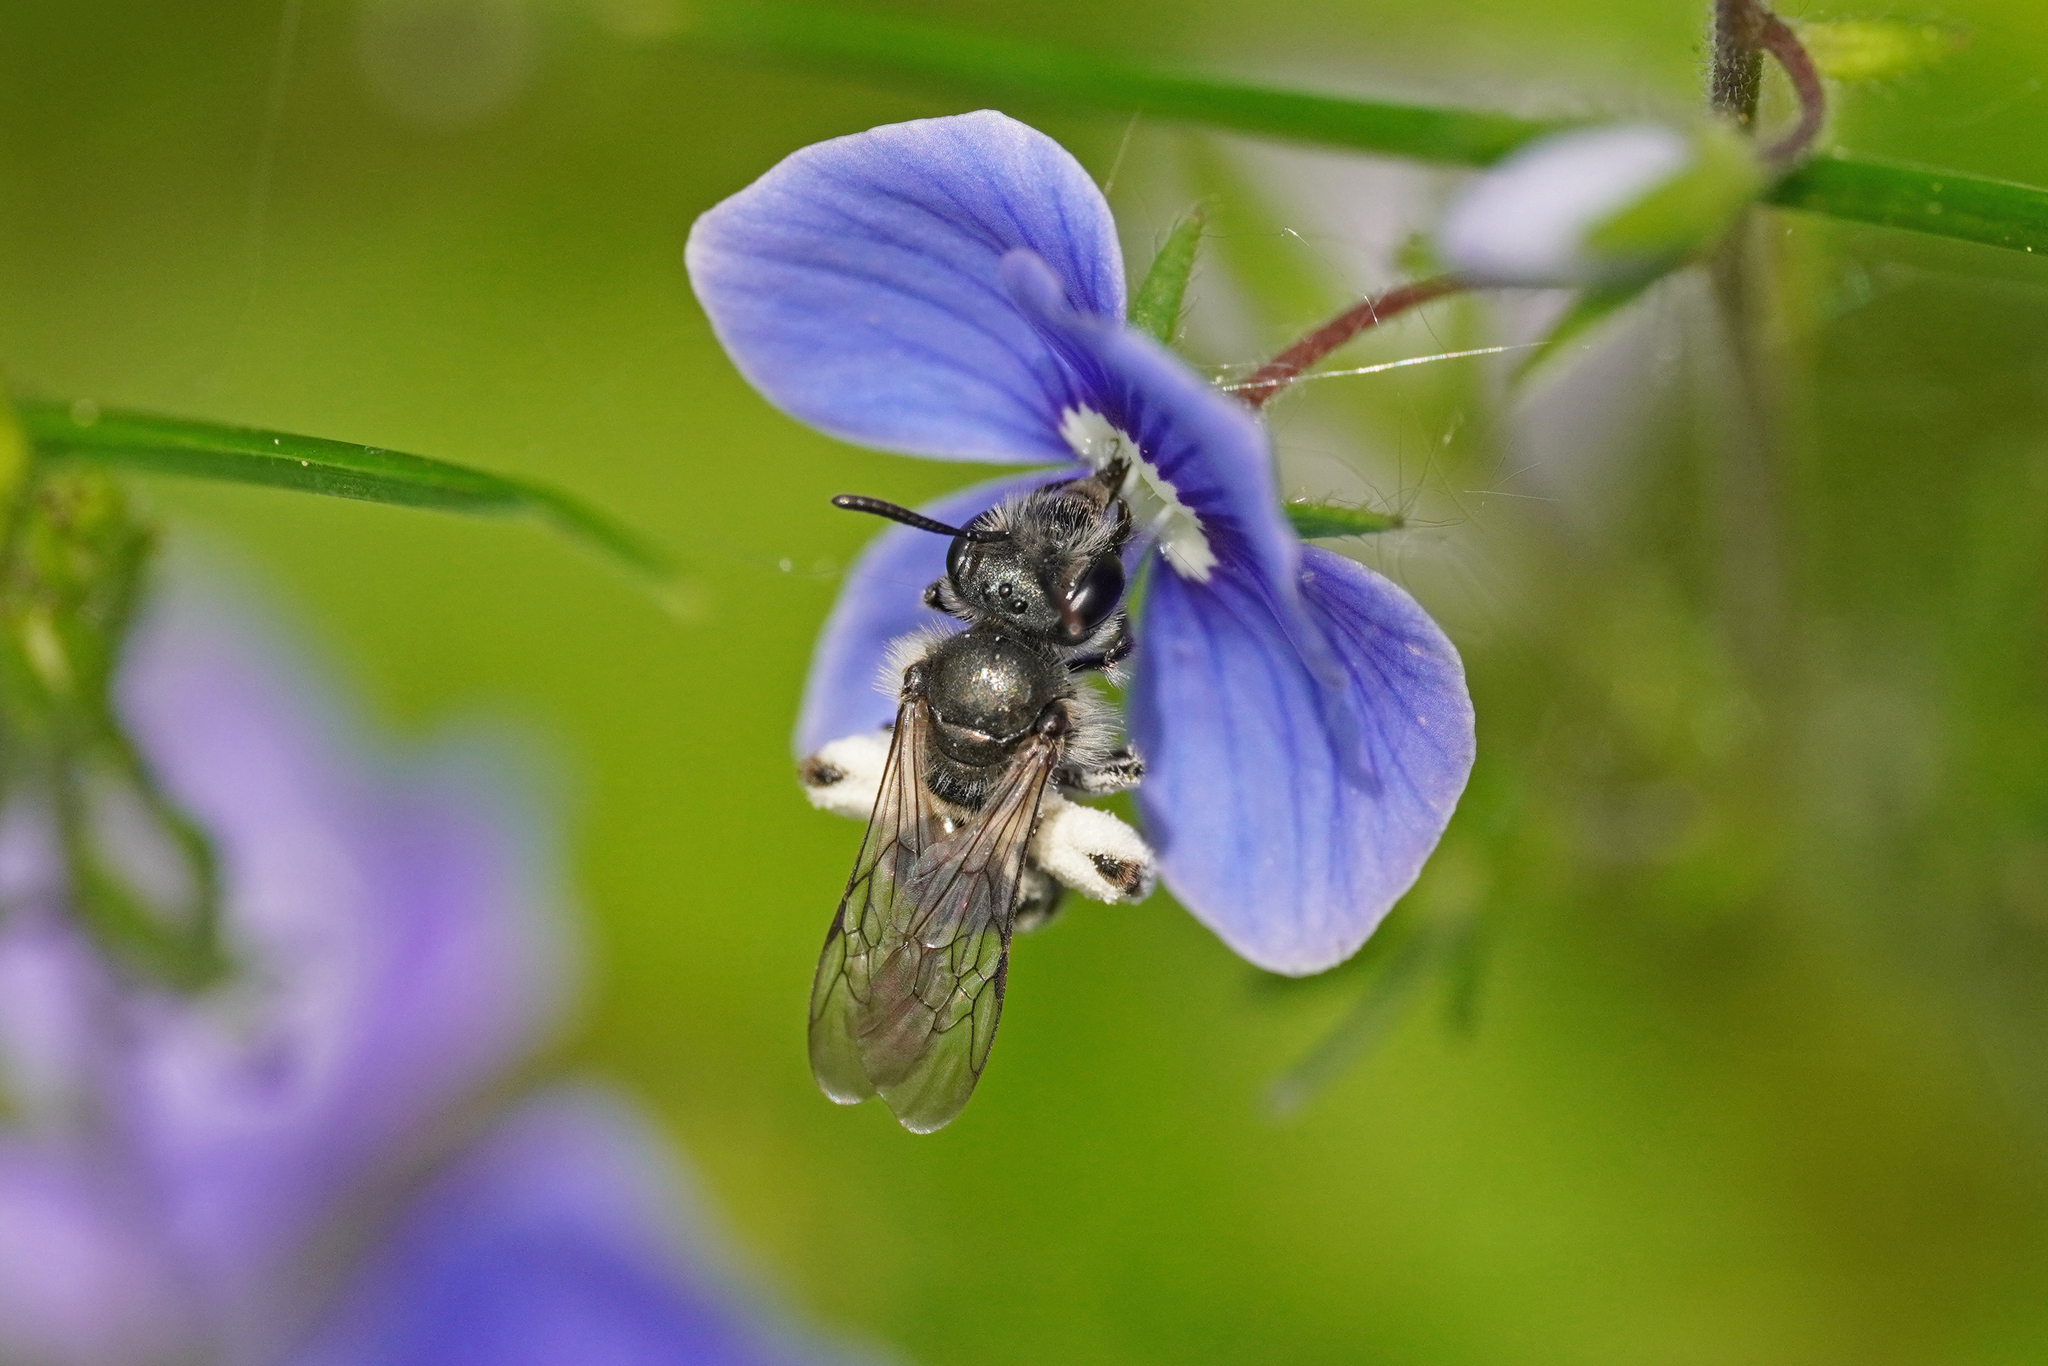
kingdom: Animalia
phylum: Arthropoda
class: Insecta
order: Hymenoptera
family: Andrenidae
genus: Andrena
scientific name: Andrena viridescens
